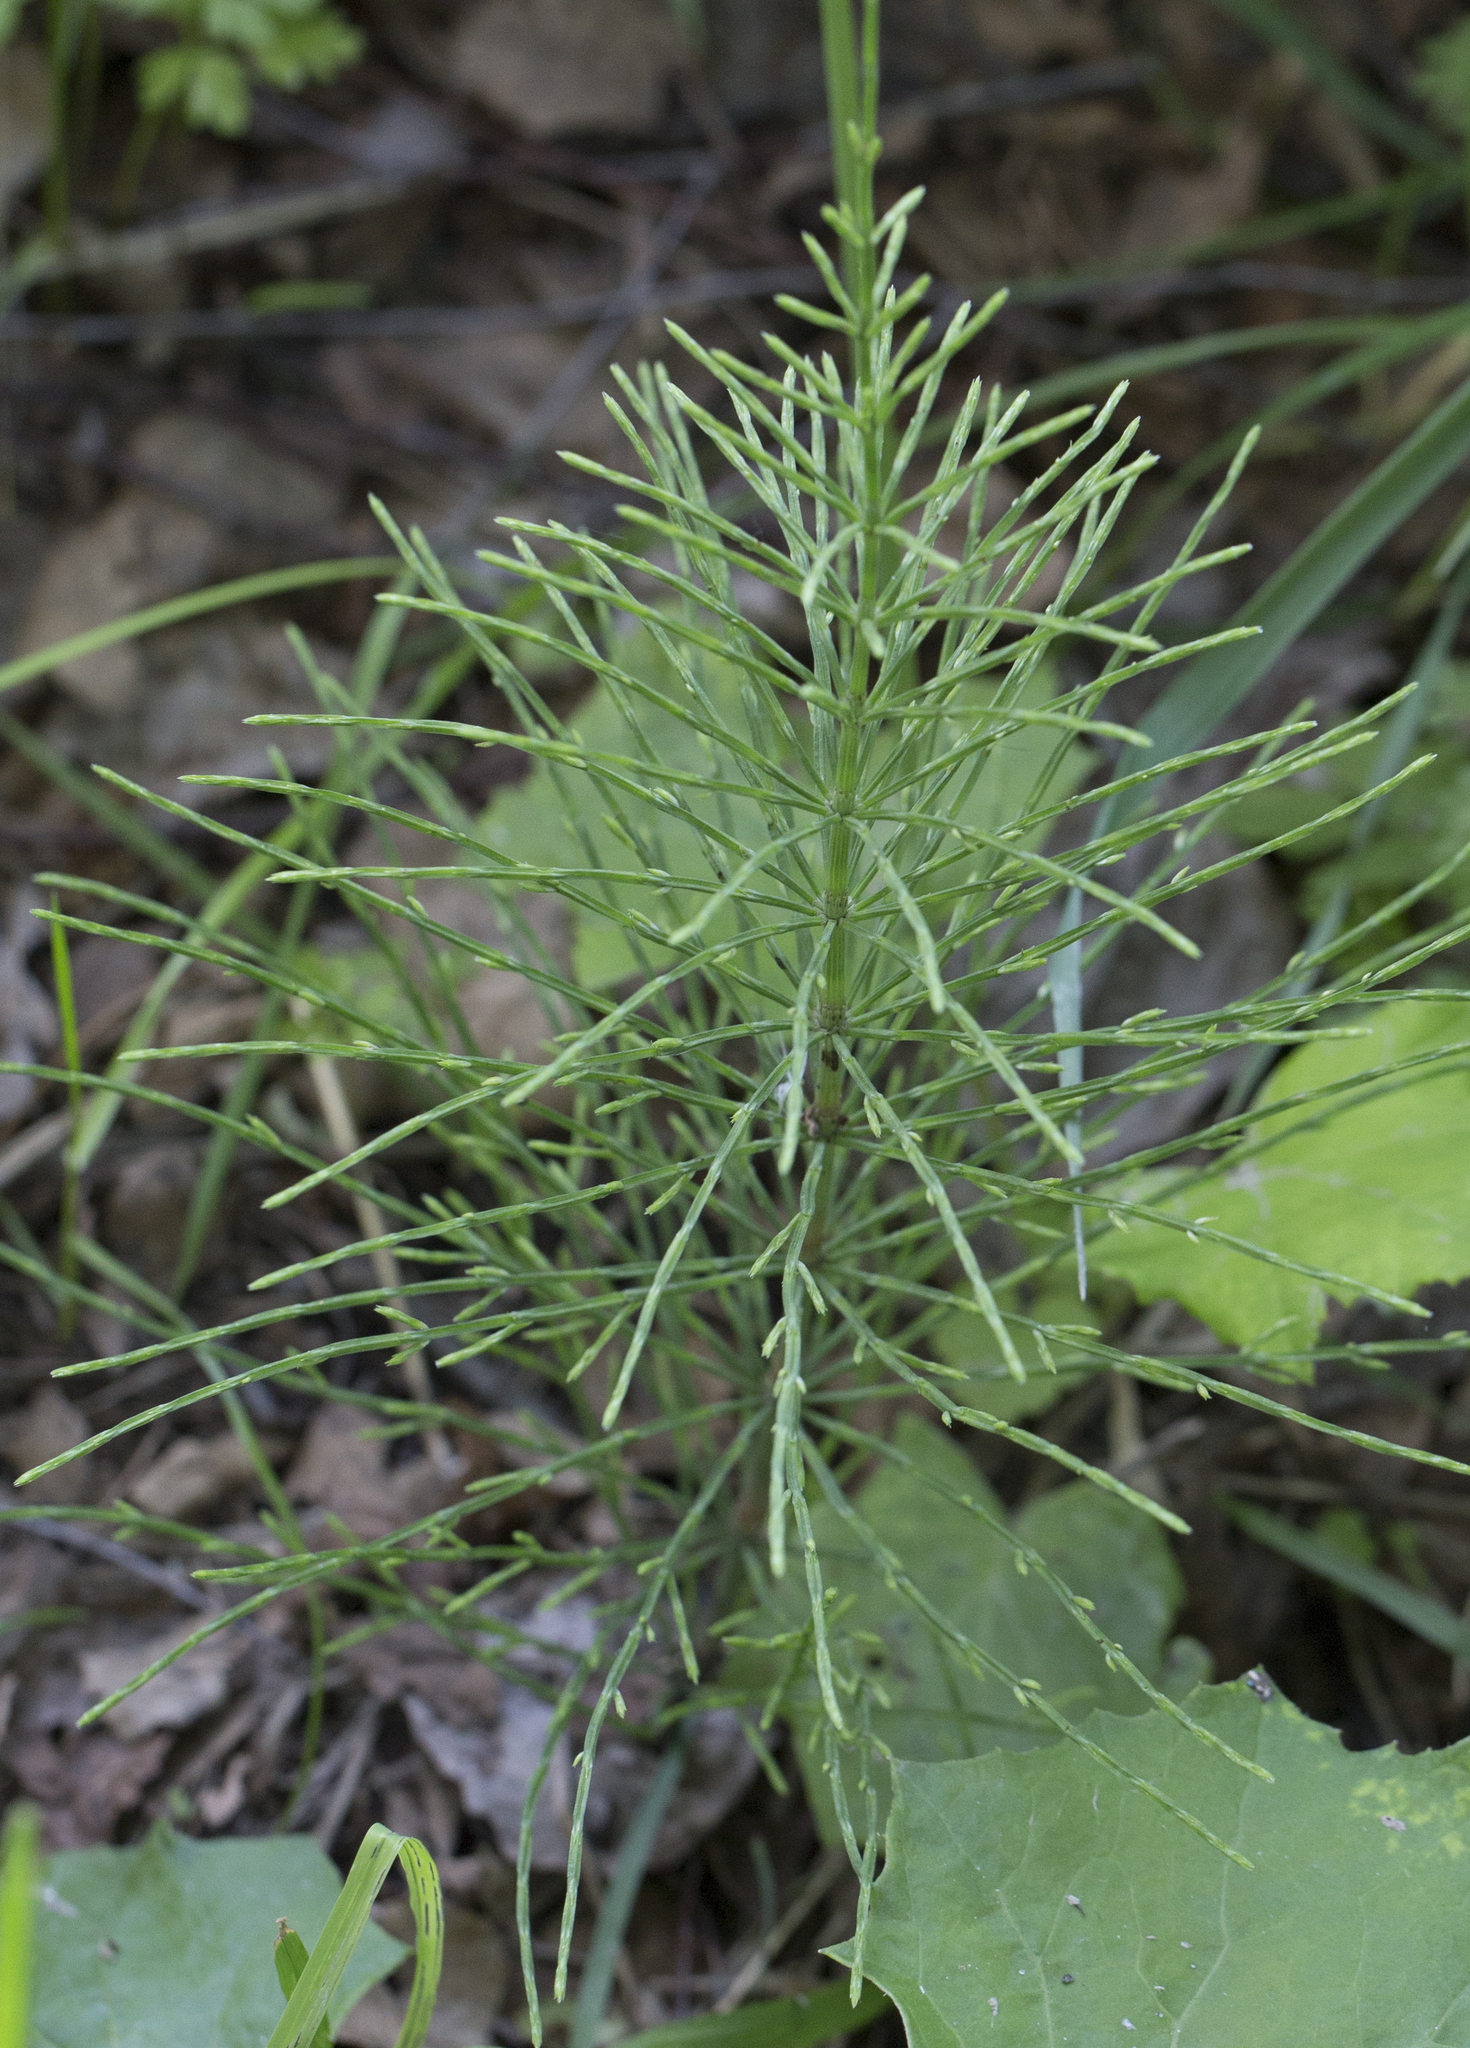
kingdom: Plantae
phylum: Tracheophyta
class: Polypodiopsida
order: Equisetales
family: Equisetaceae
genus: Equisetum
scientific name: Equisetum arvense
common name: Field horsetail
